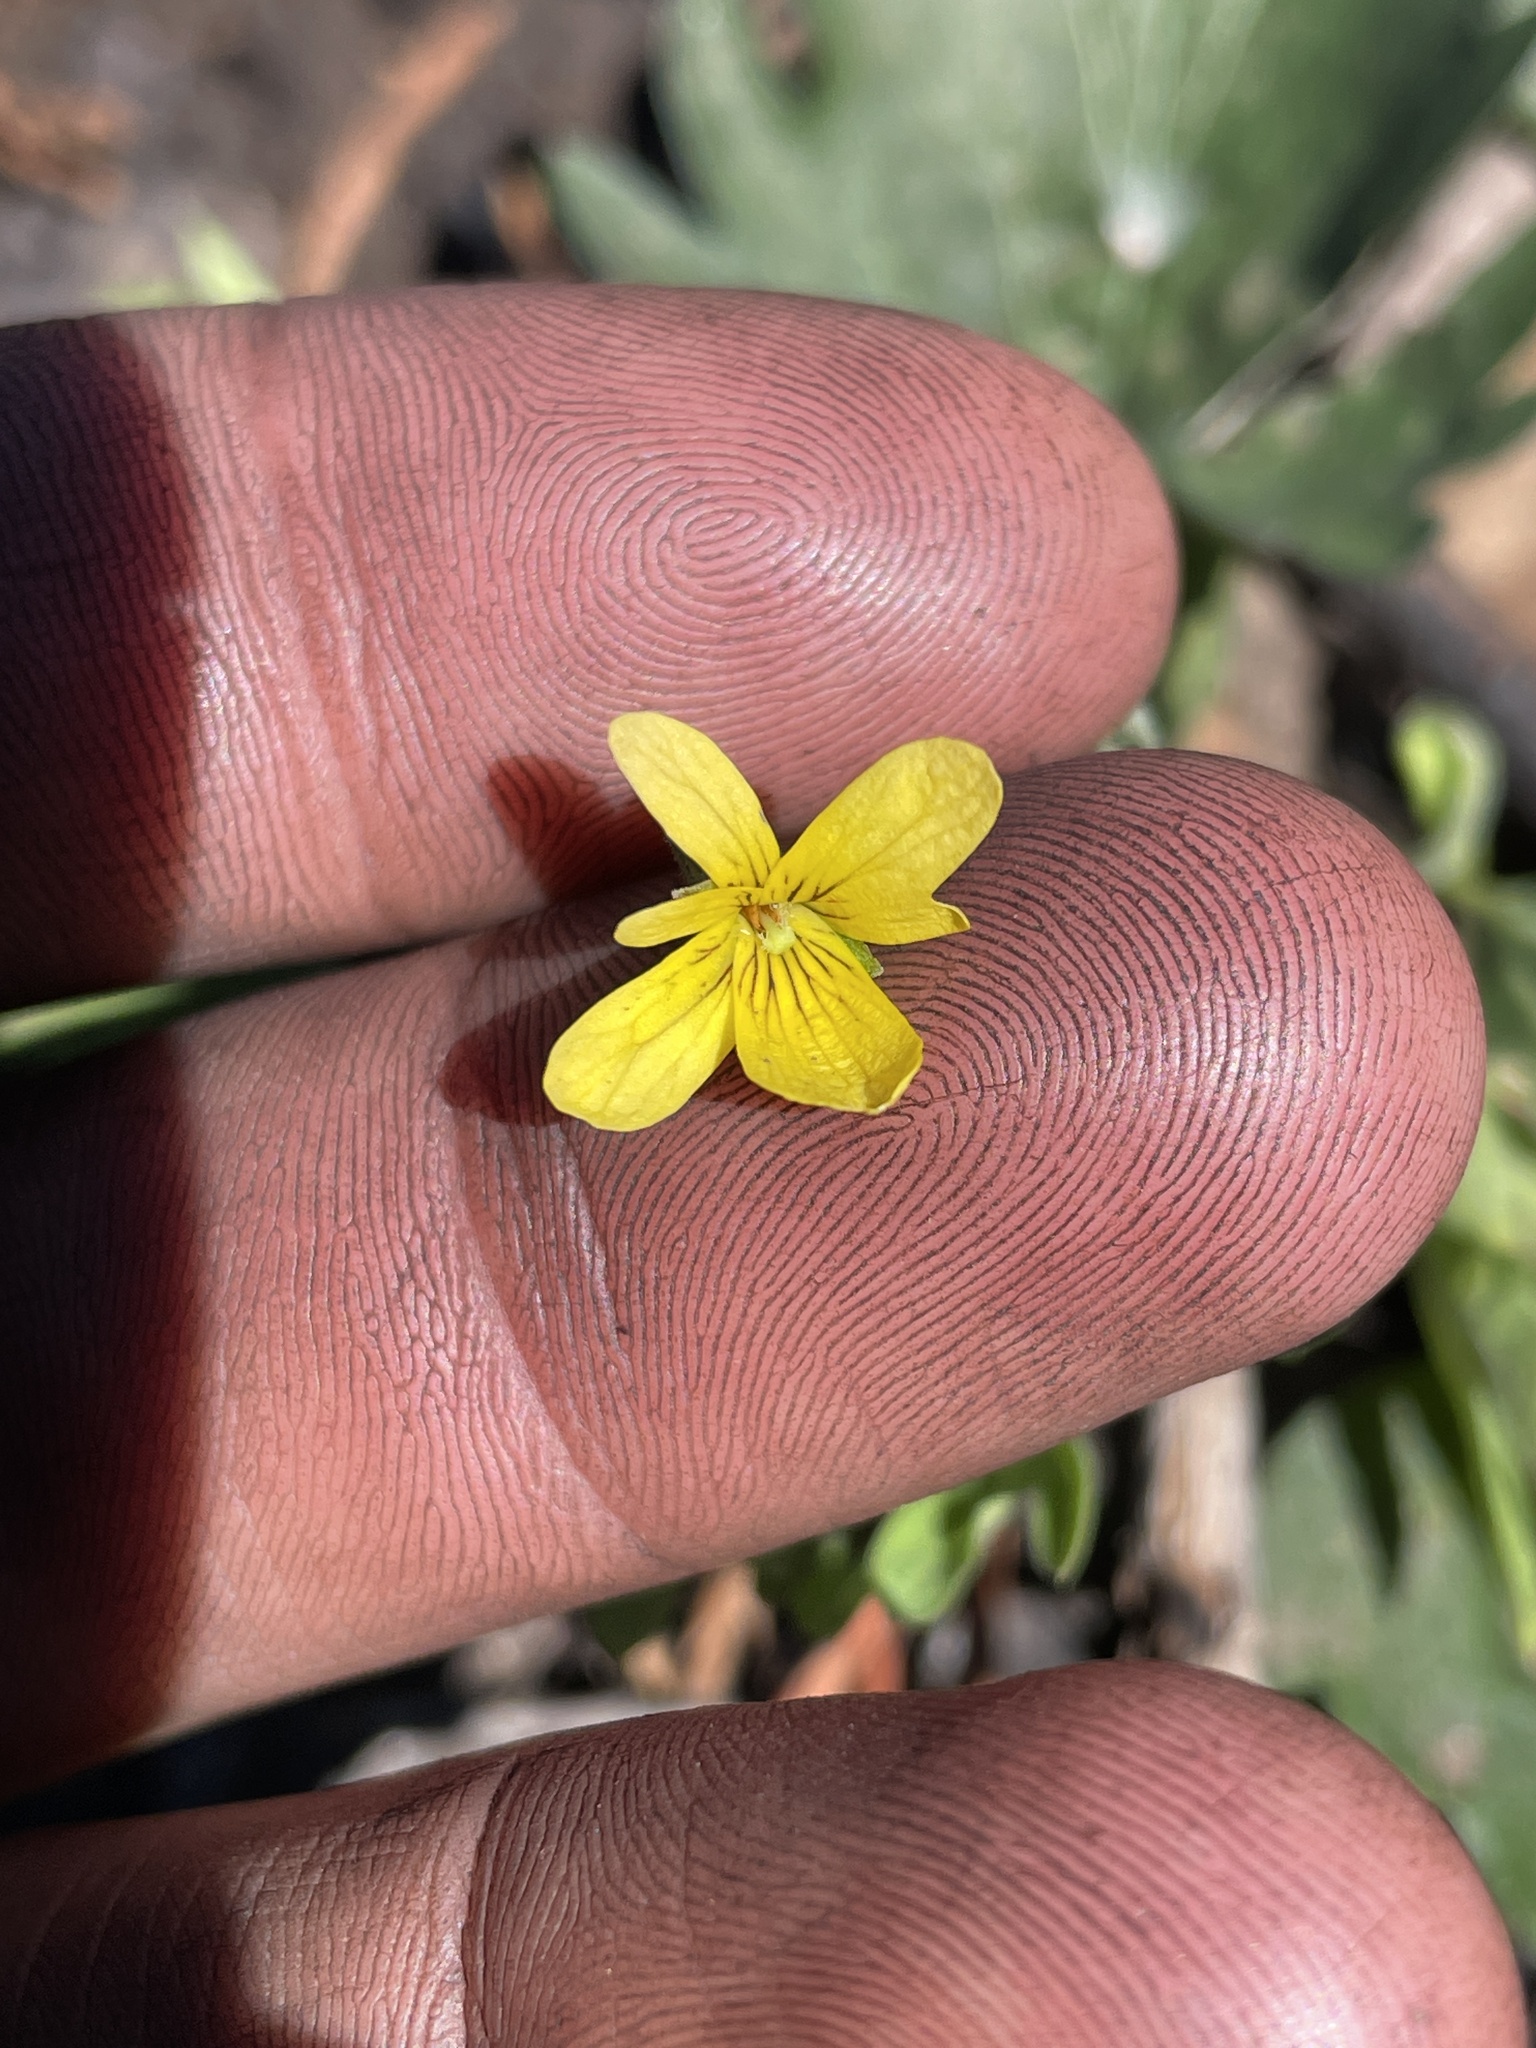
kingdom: Plantae
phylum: Tracheophyta
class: Magnoliopsida
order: Malpighiales
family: Violaceae
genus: Viola
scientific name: Viola lobata
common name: Pine violet
